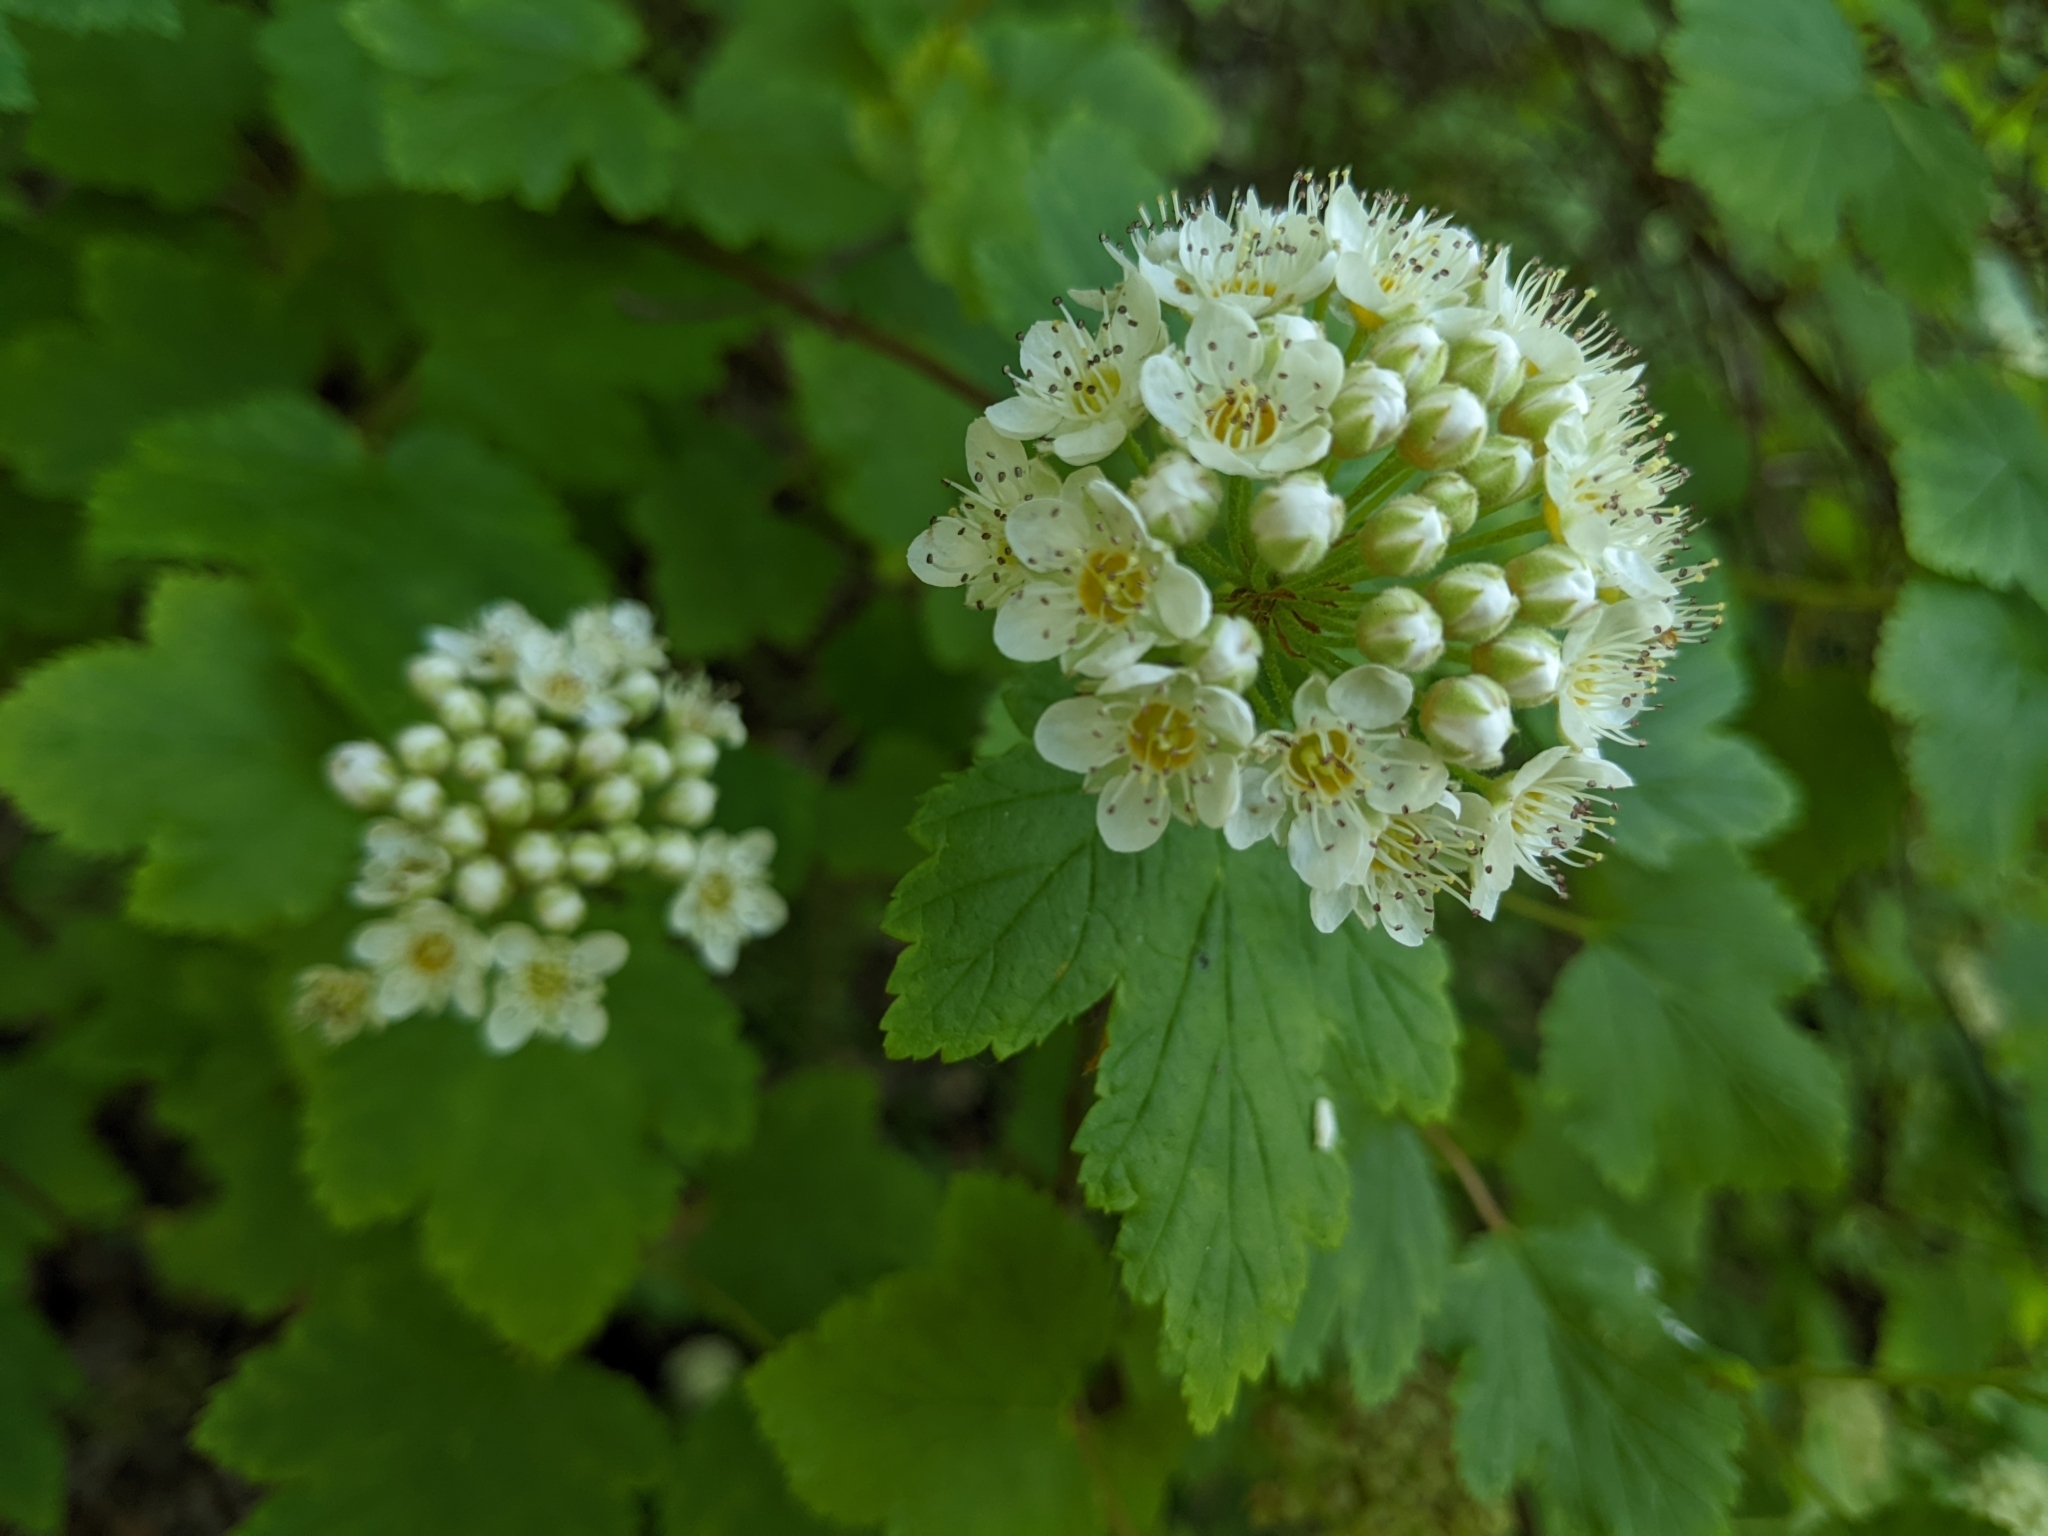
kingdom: Plantae
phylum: Tracheophyta
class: Magnoliopsida
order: Rosales
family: Rosaceae
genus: Physocarpus
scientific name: Physocarpus capitatus
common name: Pacific ninebark
